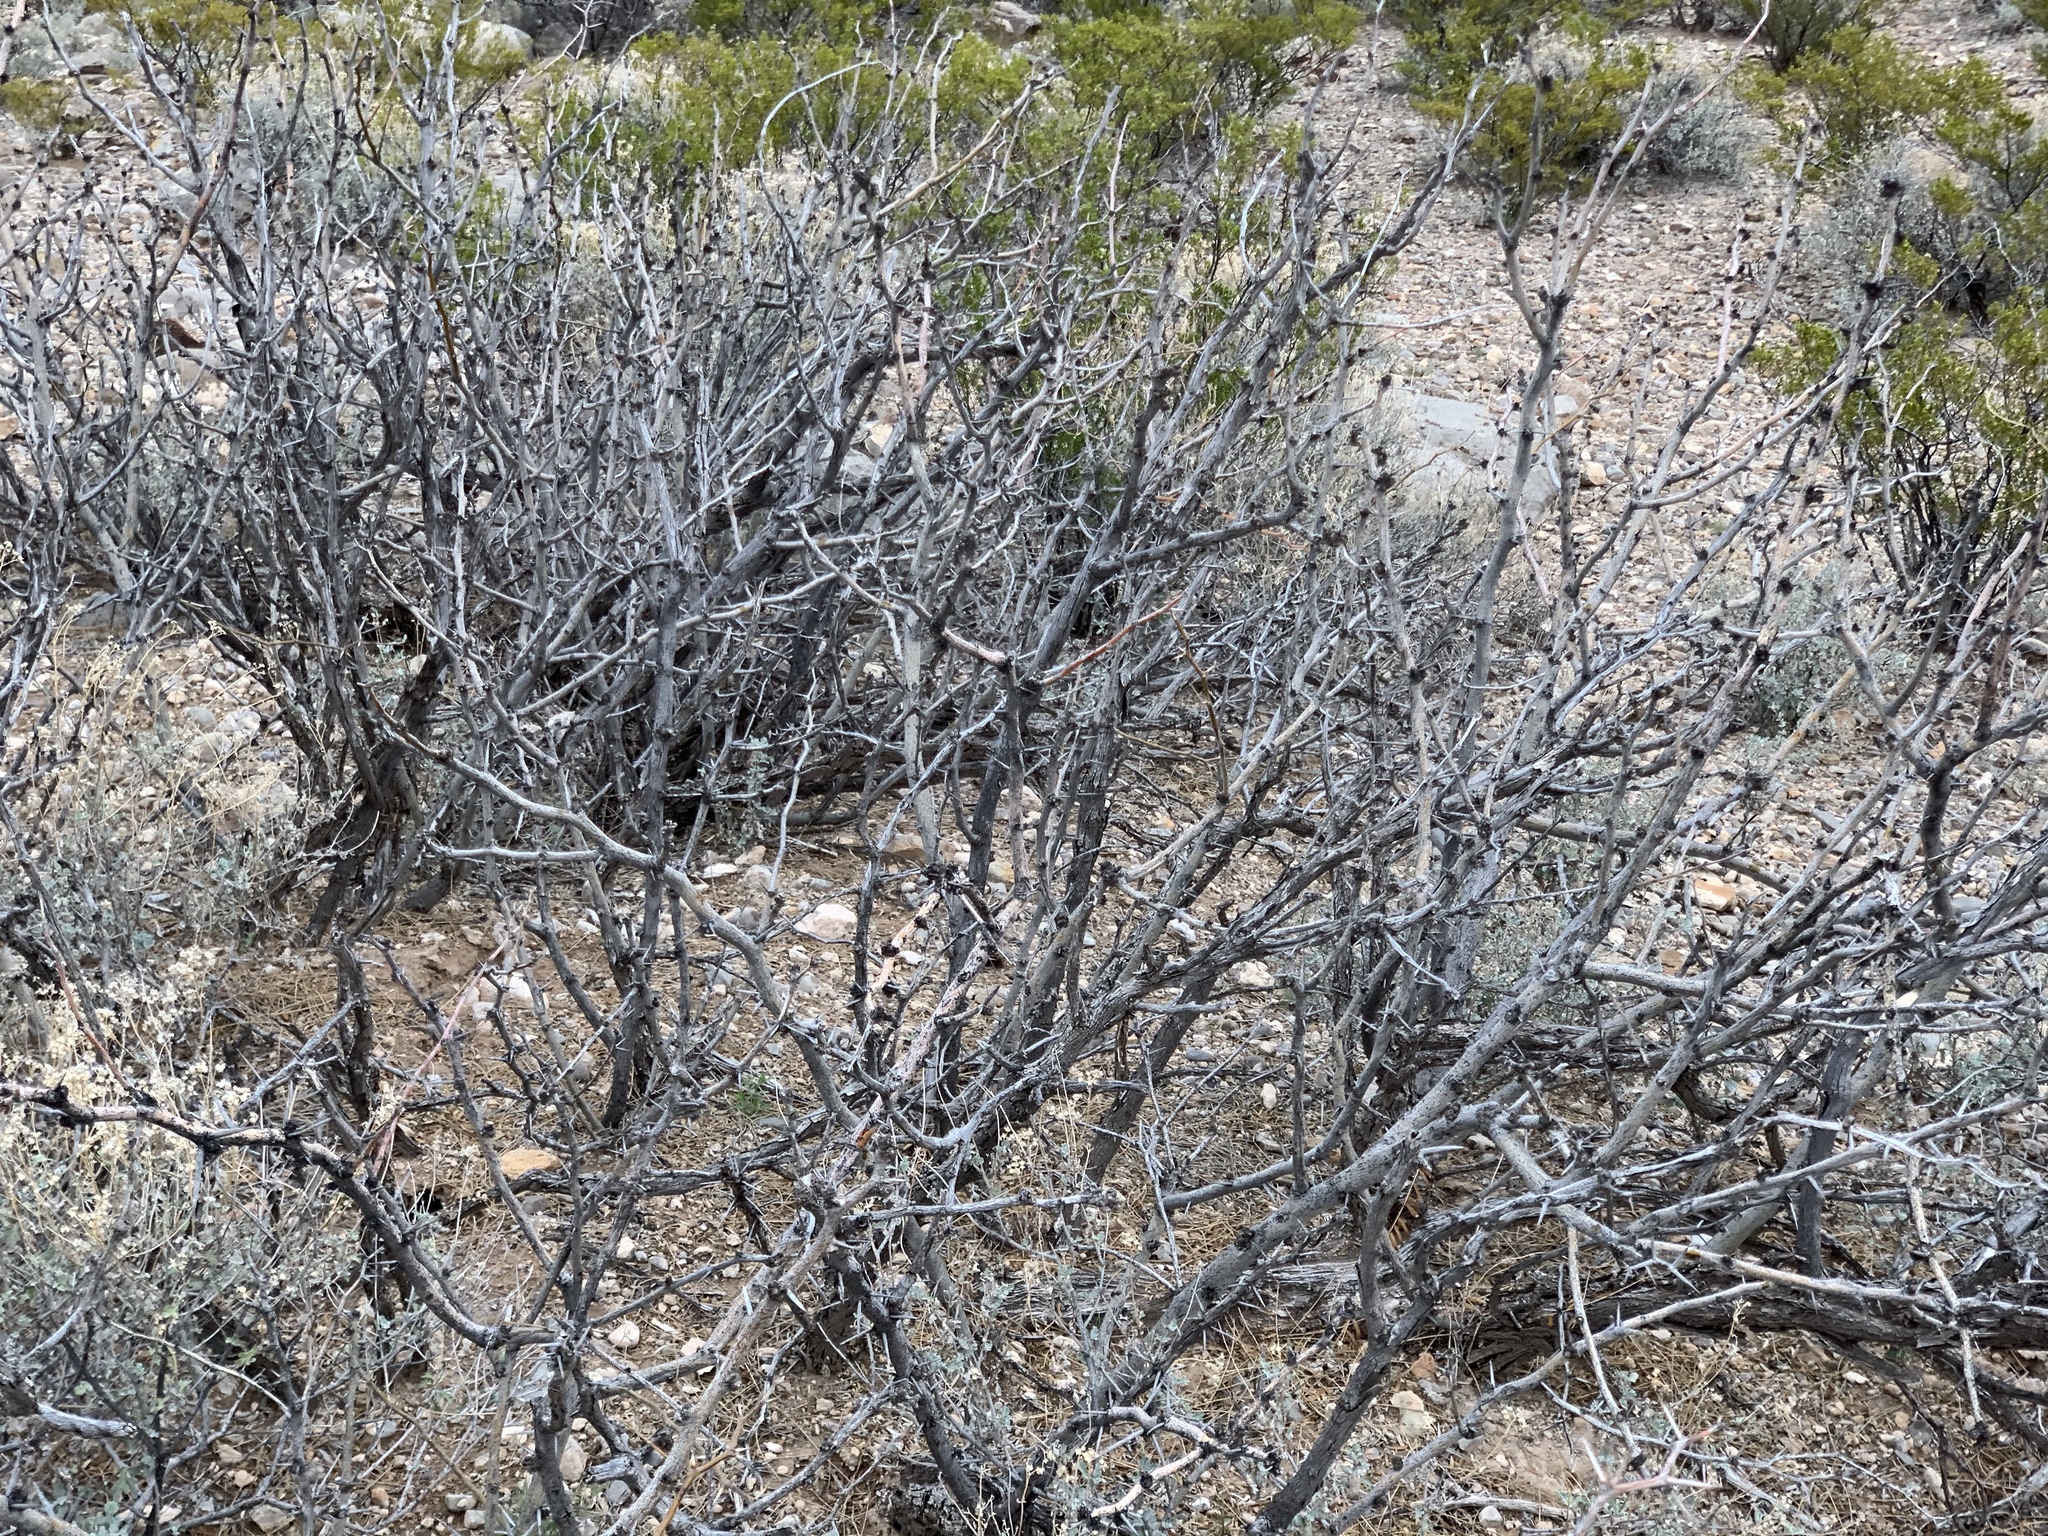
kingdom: Plantae
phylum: Tracheophyta
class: Magnoliopsida
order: Fabales
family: Fabaceae
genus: Prosopis
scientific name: Prosopis glandulosa
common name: Honey mesquite
